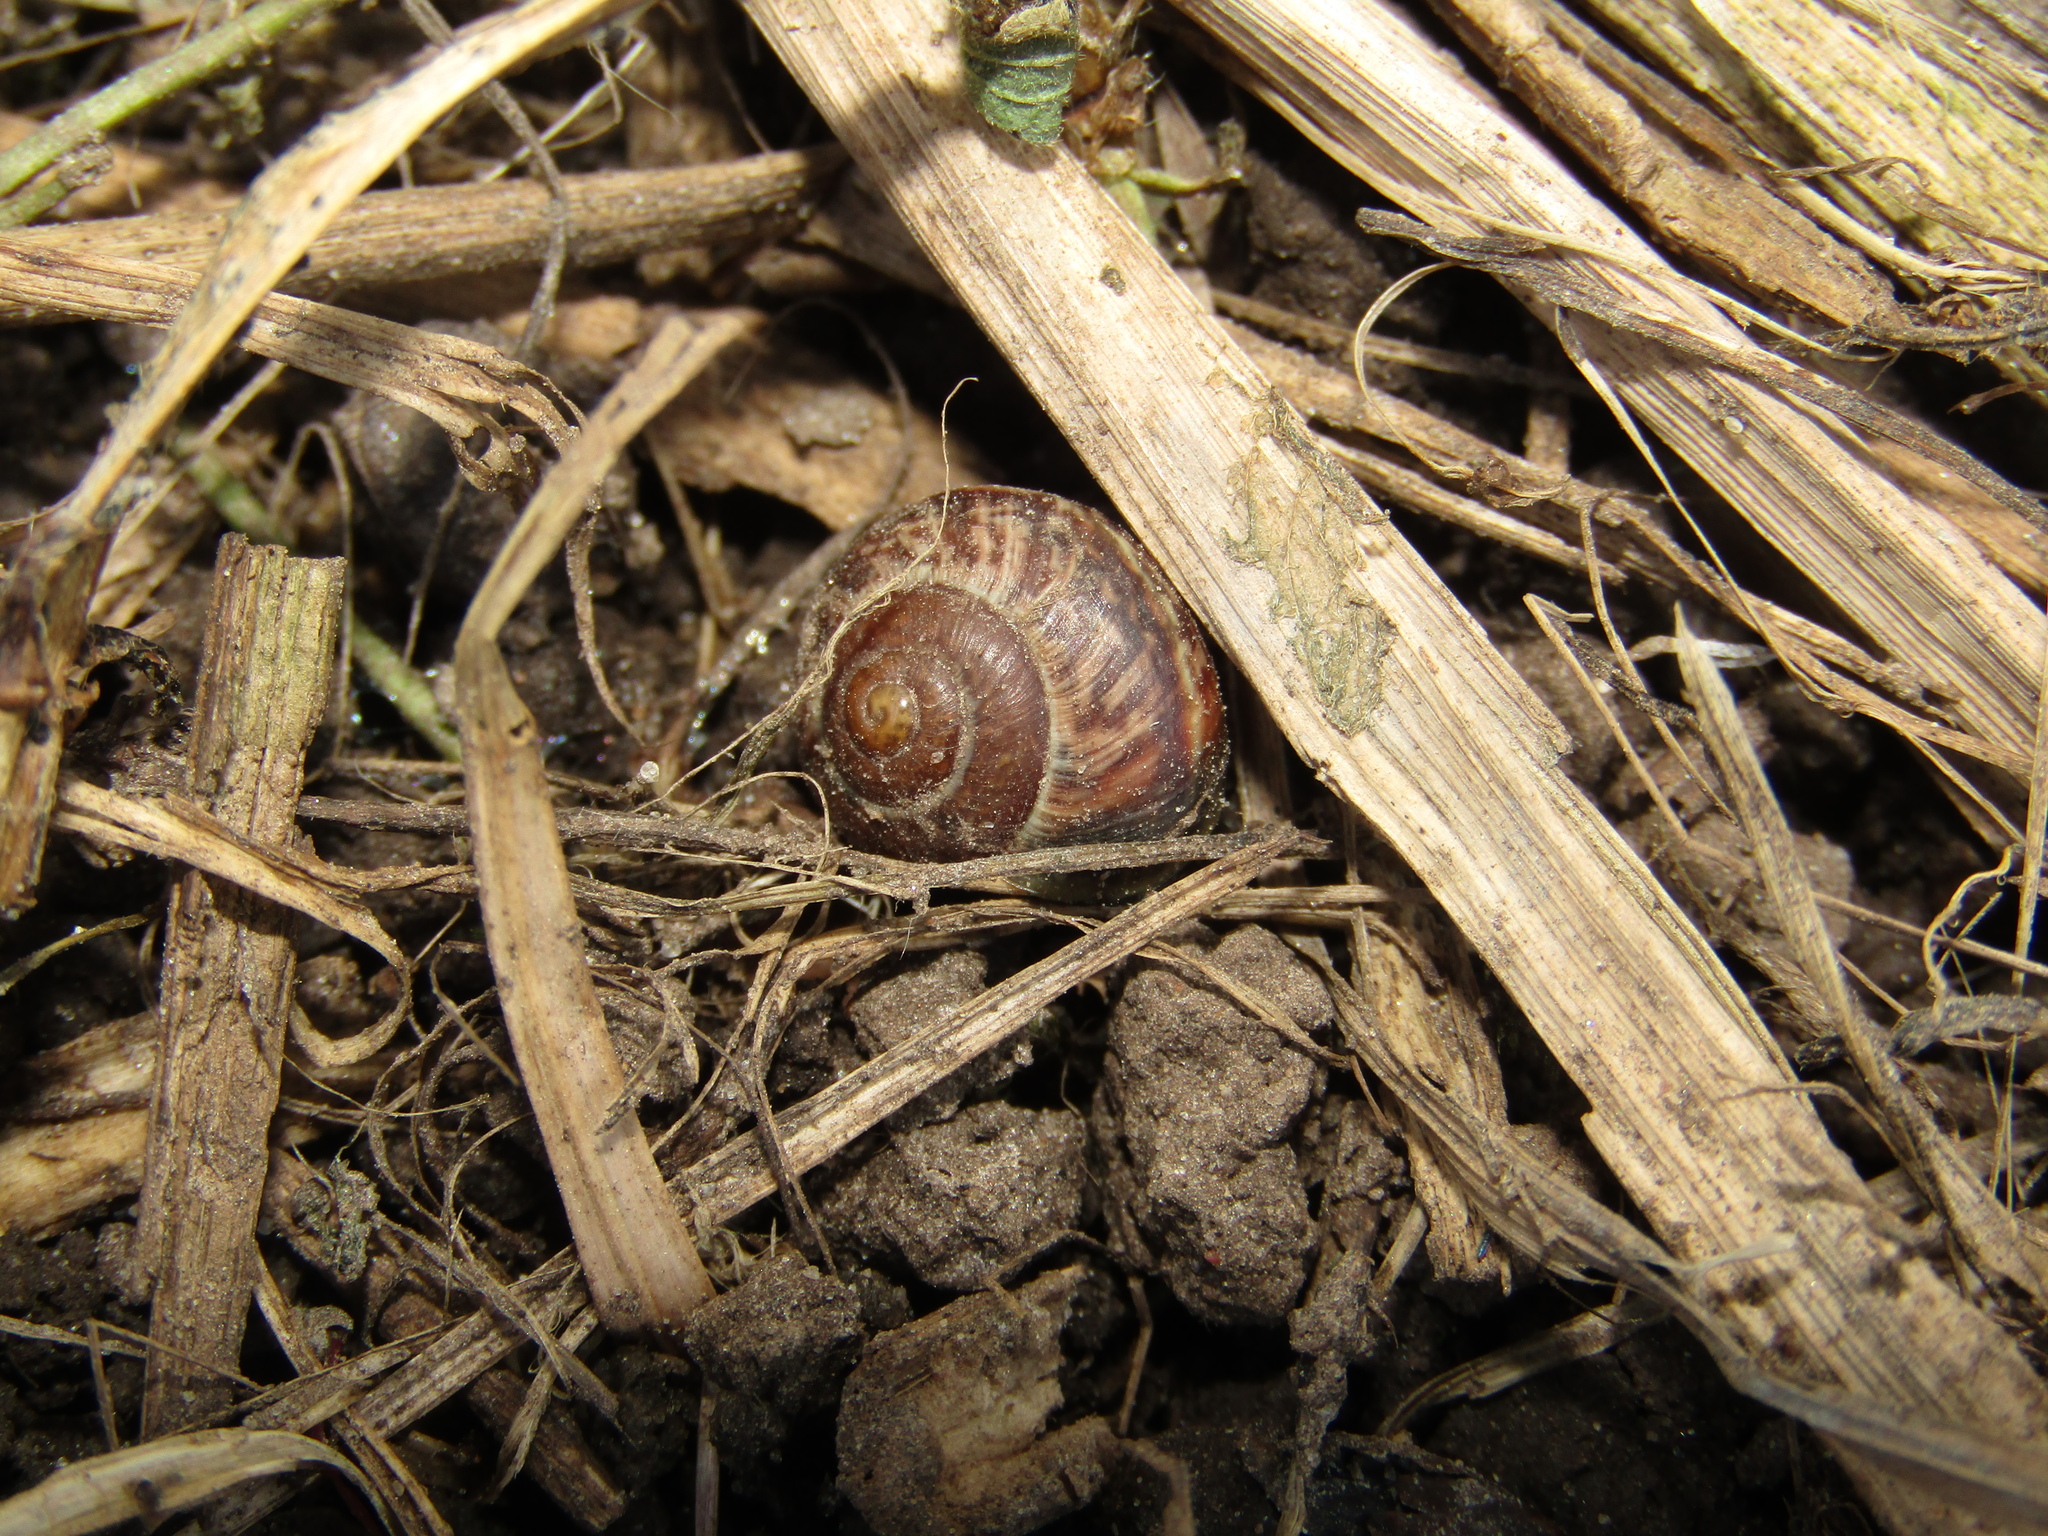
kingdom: Animalia
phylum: Mollusca
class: Gastropoda
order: Stylommatophora
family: Helicidae
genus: Arianta
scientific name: Arianta arbustorum
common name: Copse snail
